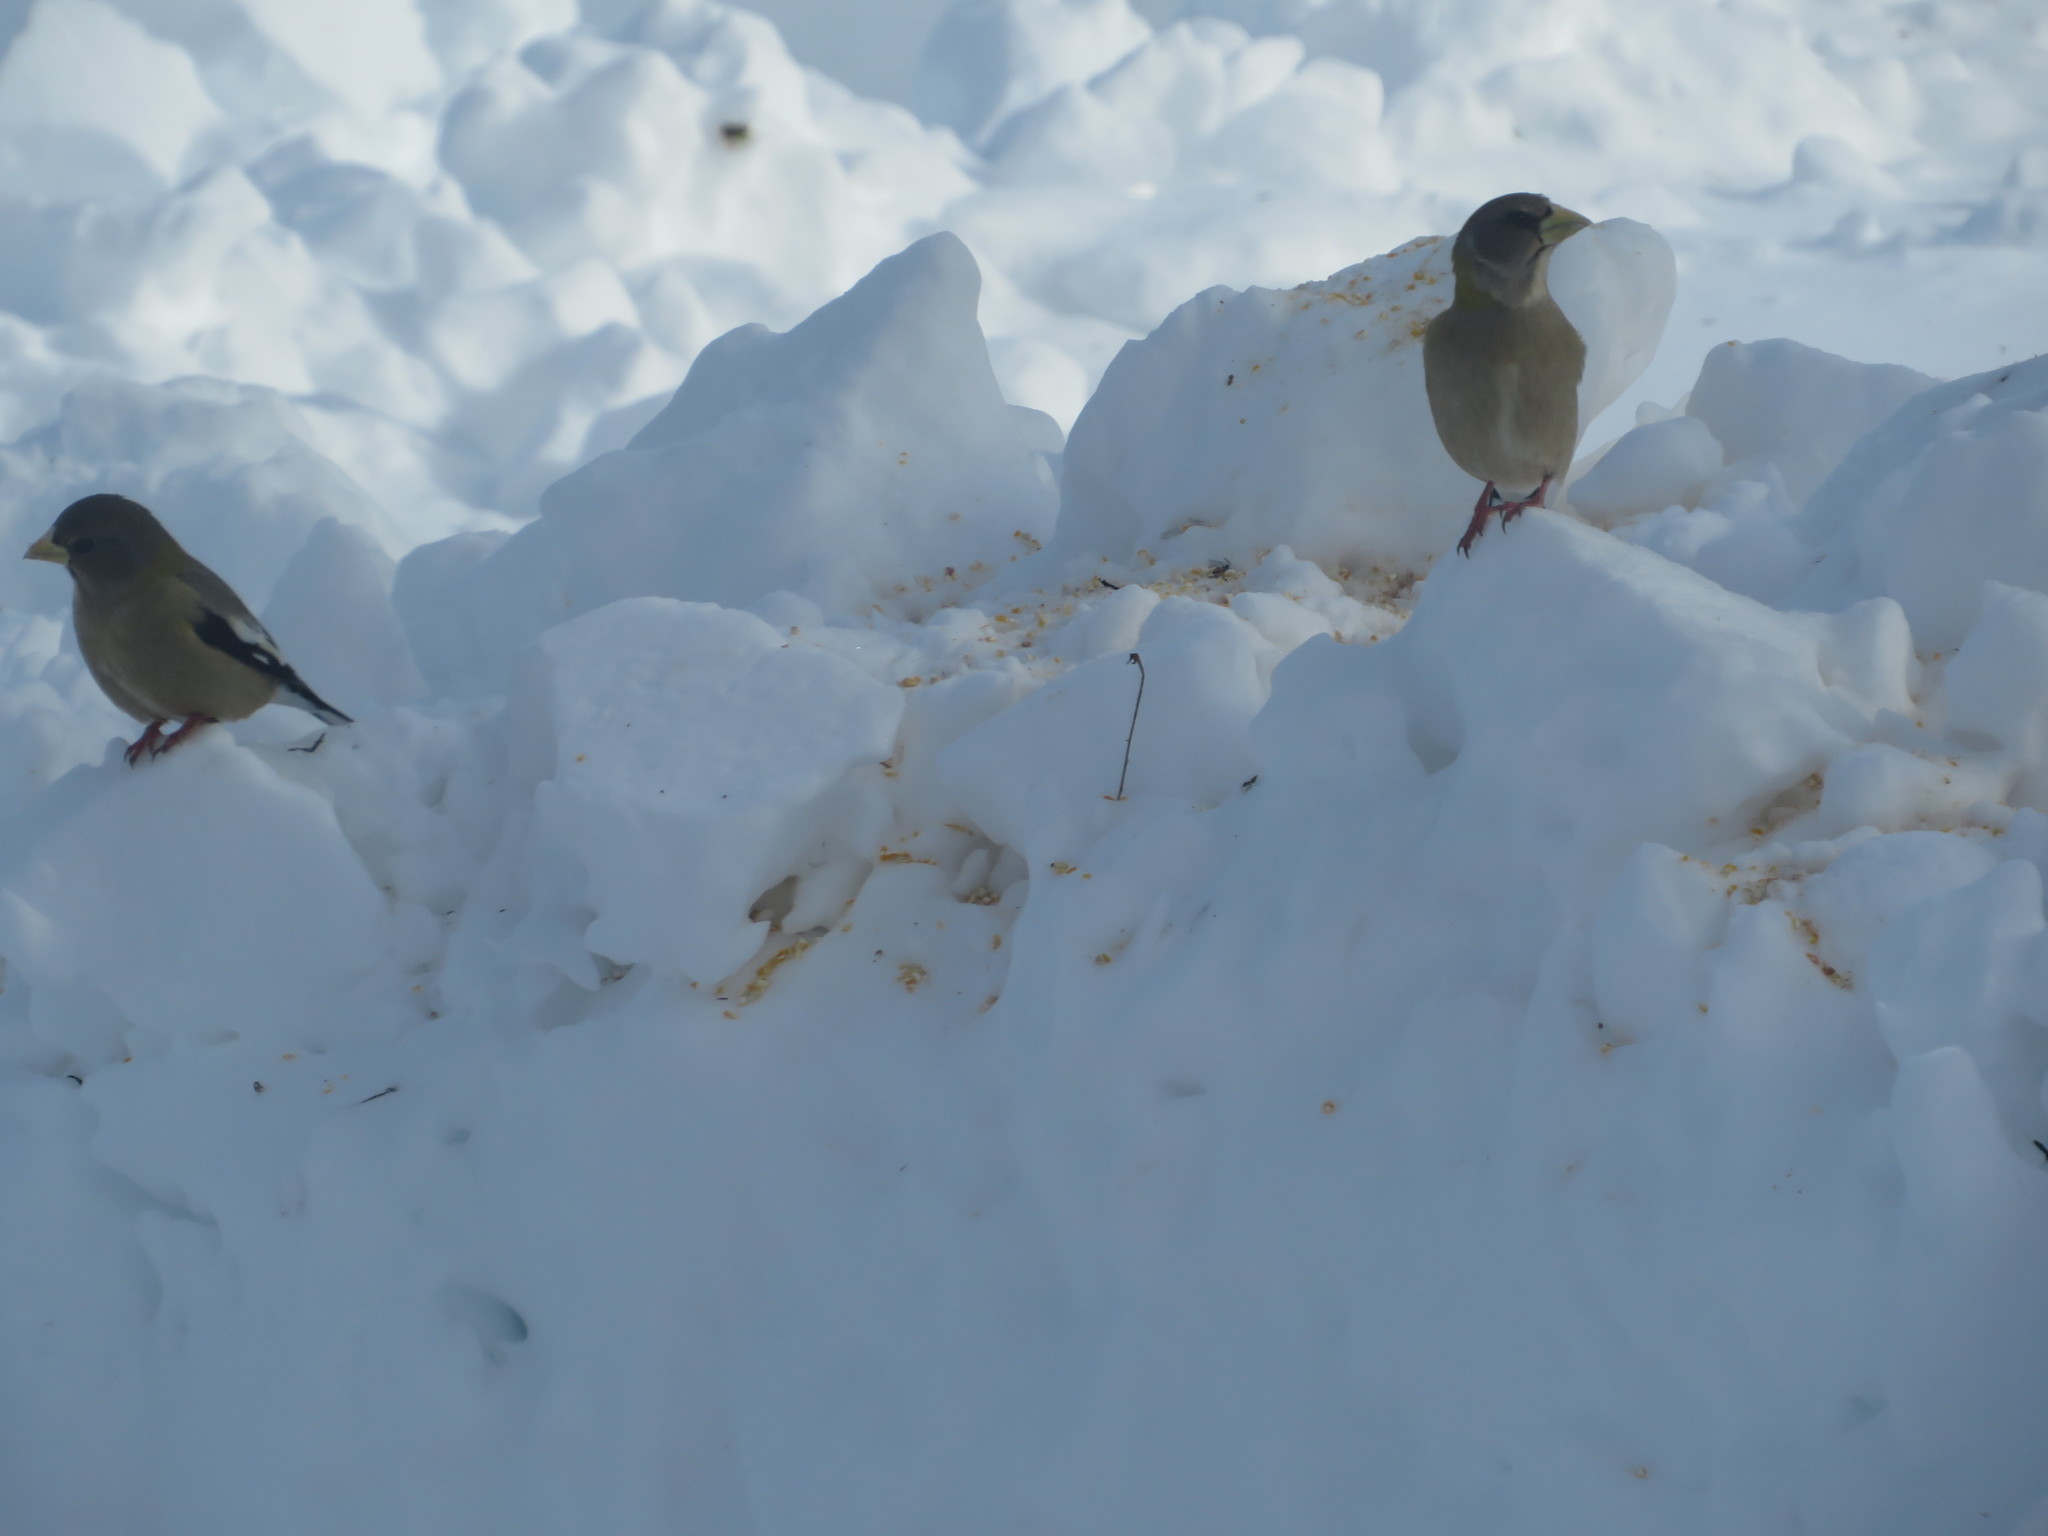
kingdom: Animalia
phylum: Chordata
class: Aves
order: Passeriformes
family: Fringillidae
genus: Hesperiphona
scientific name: Hesperiphona vespertina
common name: Evening grosbeak
